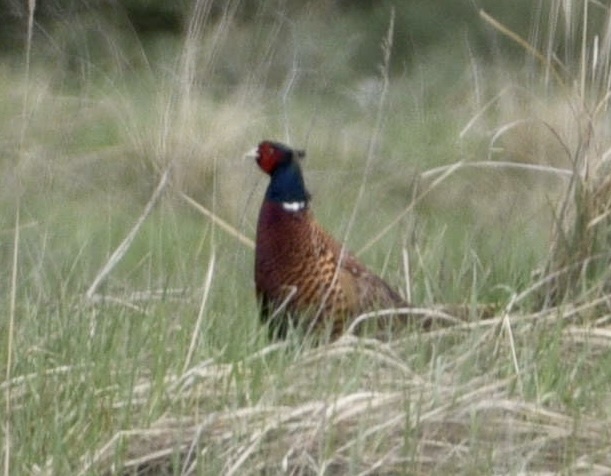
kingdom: Animalia
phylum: Chordata
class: Aves
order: Galliformes
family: Phasianidae
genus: Phasianus
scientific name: Phasianus colchicus
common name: Common pheasant
